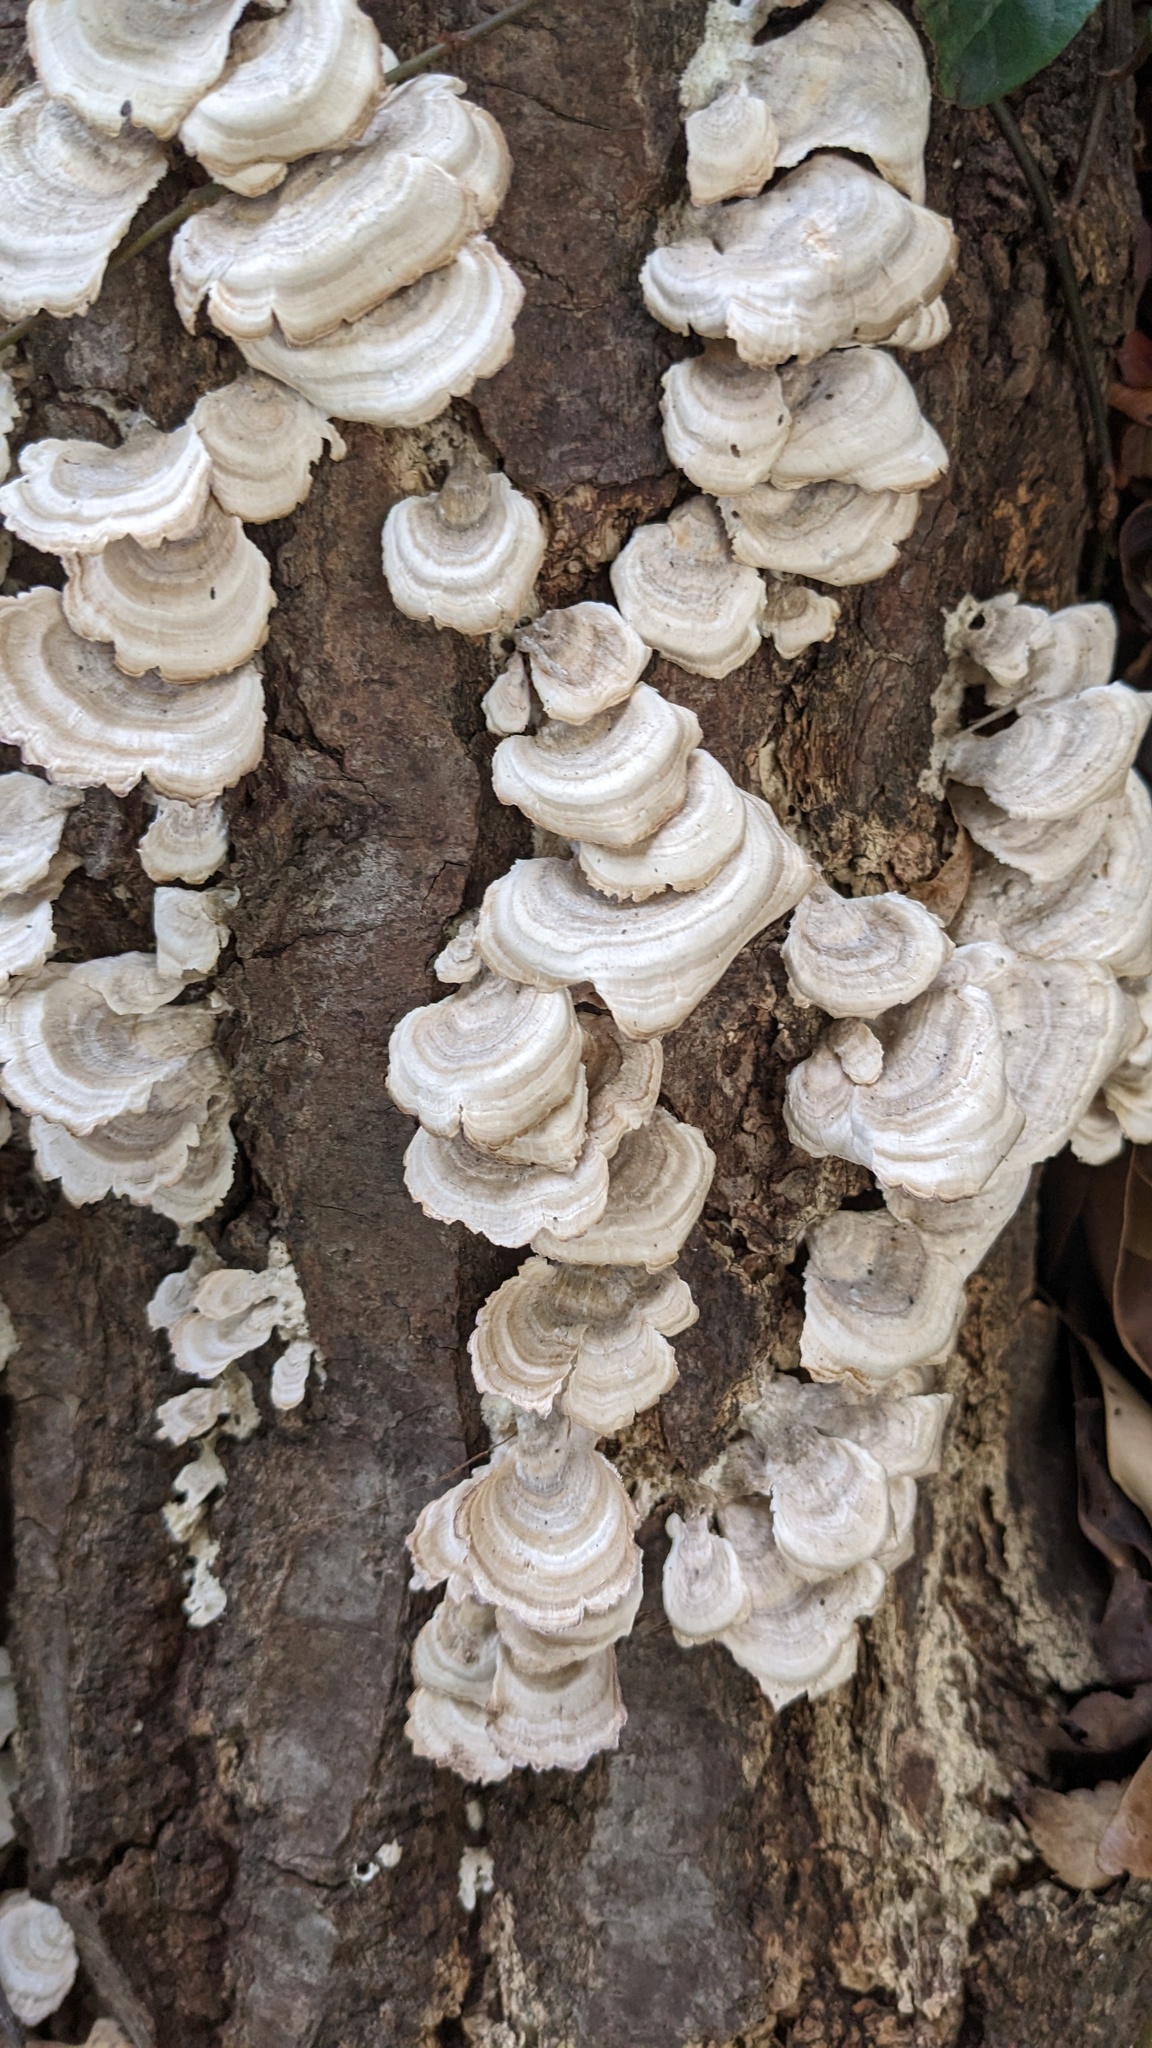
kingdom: Fungi
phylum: Basidiomycota
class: Agaricomycetes
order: Hymenochaetales
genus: Trichaptum
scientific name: Trichaptum biforme
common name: Violet-toothed polypore
